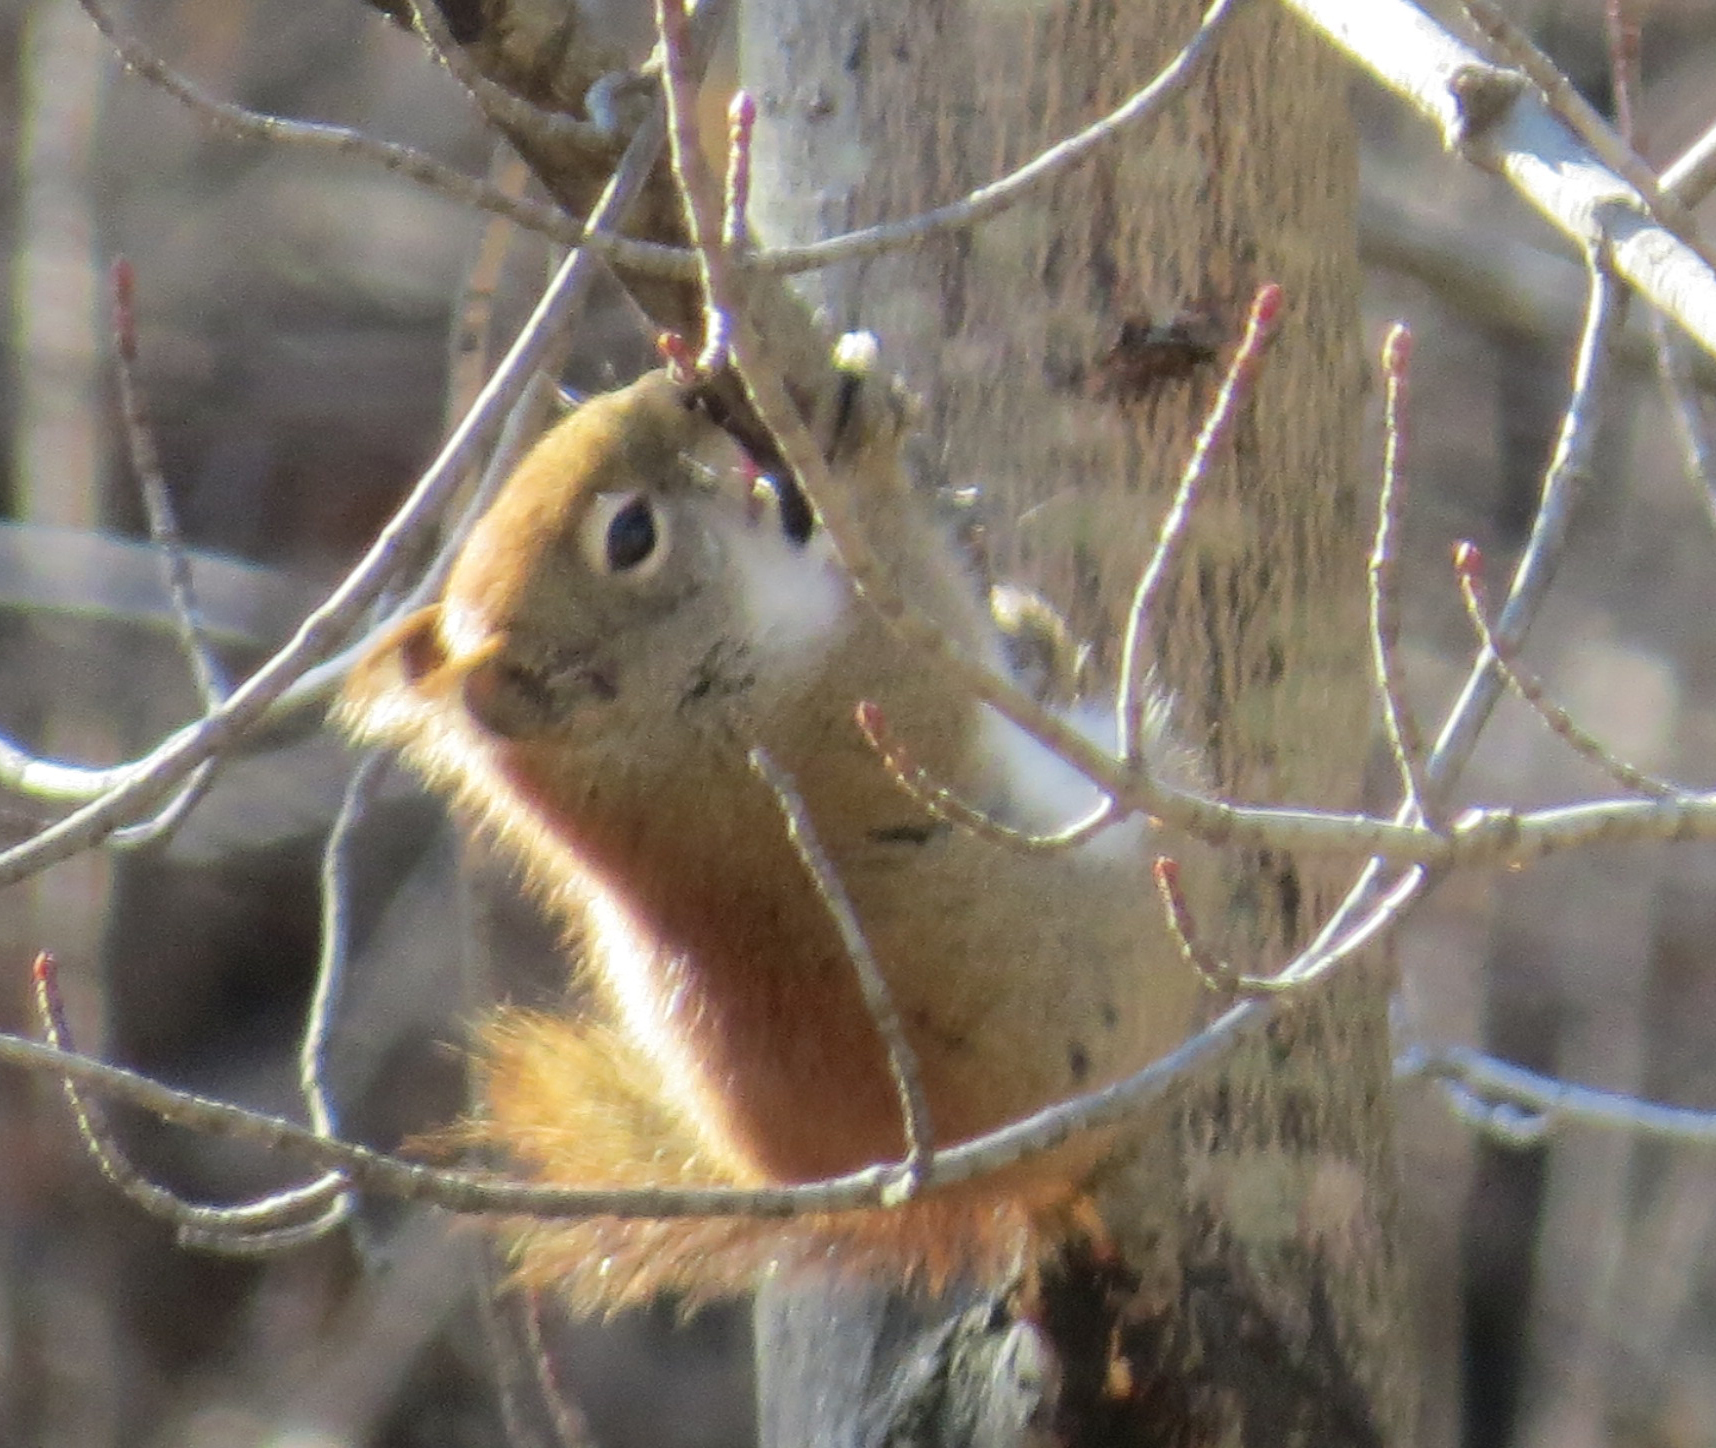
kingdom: Animalia
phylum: Chordata
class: Mammalia
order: Rodentia
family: Sciuridae
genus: Tamiasciurus
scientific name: Tamiasciurus hudsonicus
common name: Red squirrel
